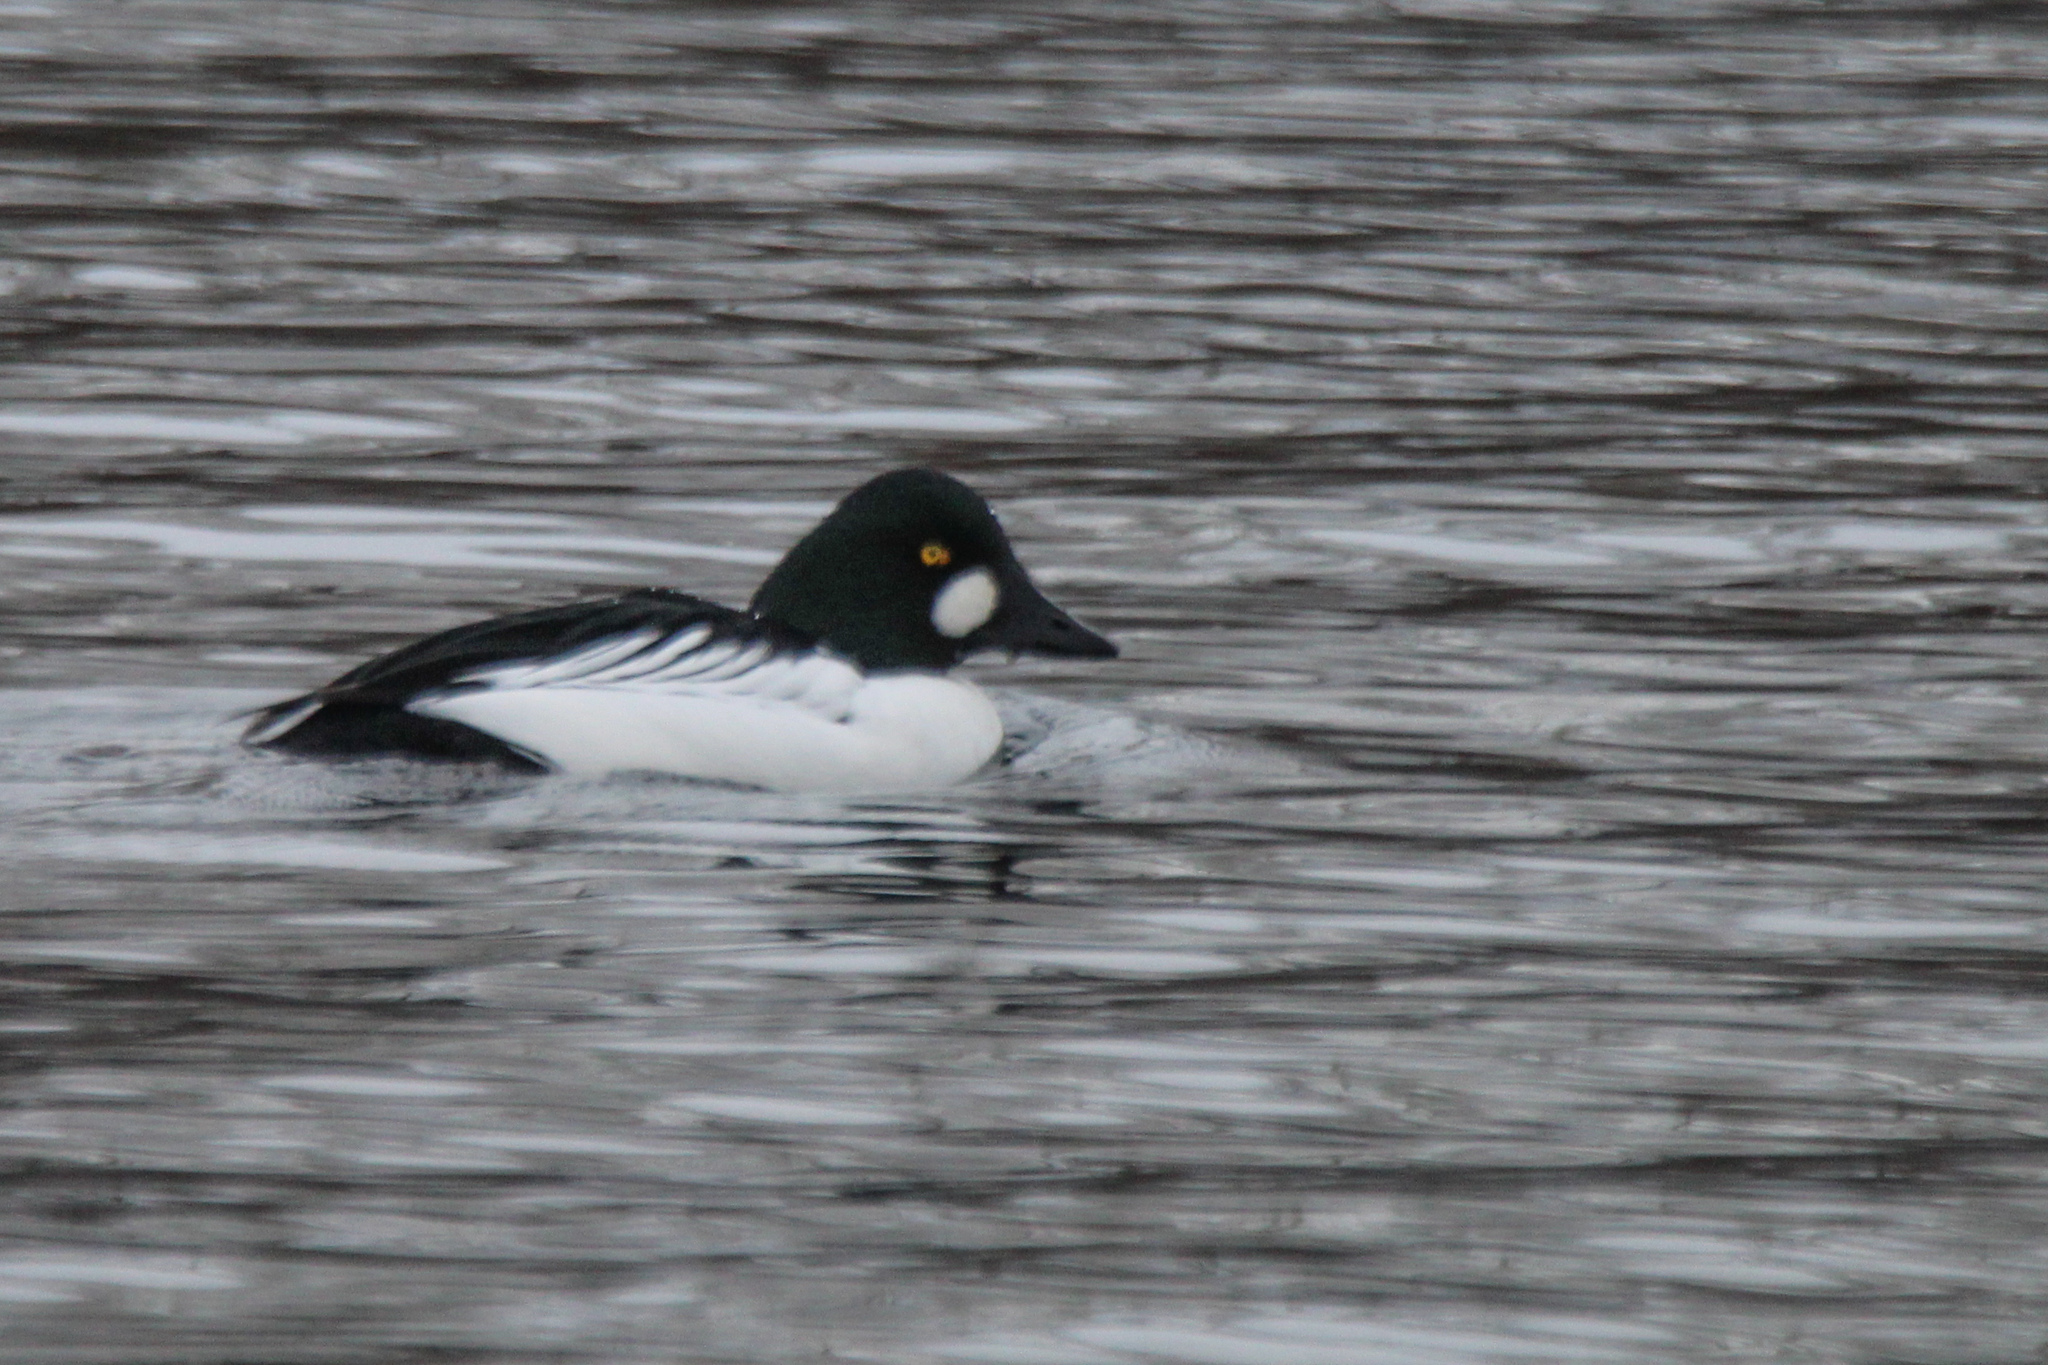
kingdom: Animalia
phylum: Chordata
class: Aves
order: Anseriformes
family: Anatidae
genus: Bucephala
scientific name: Bucephala clangula
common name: Common goldeneye
